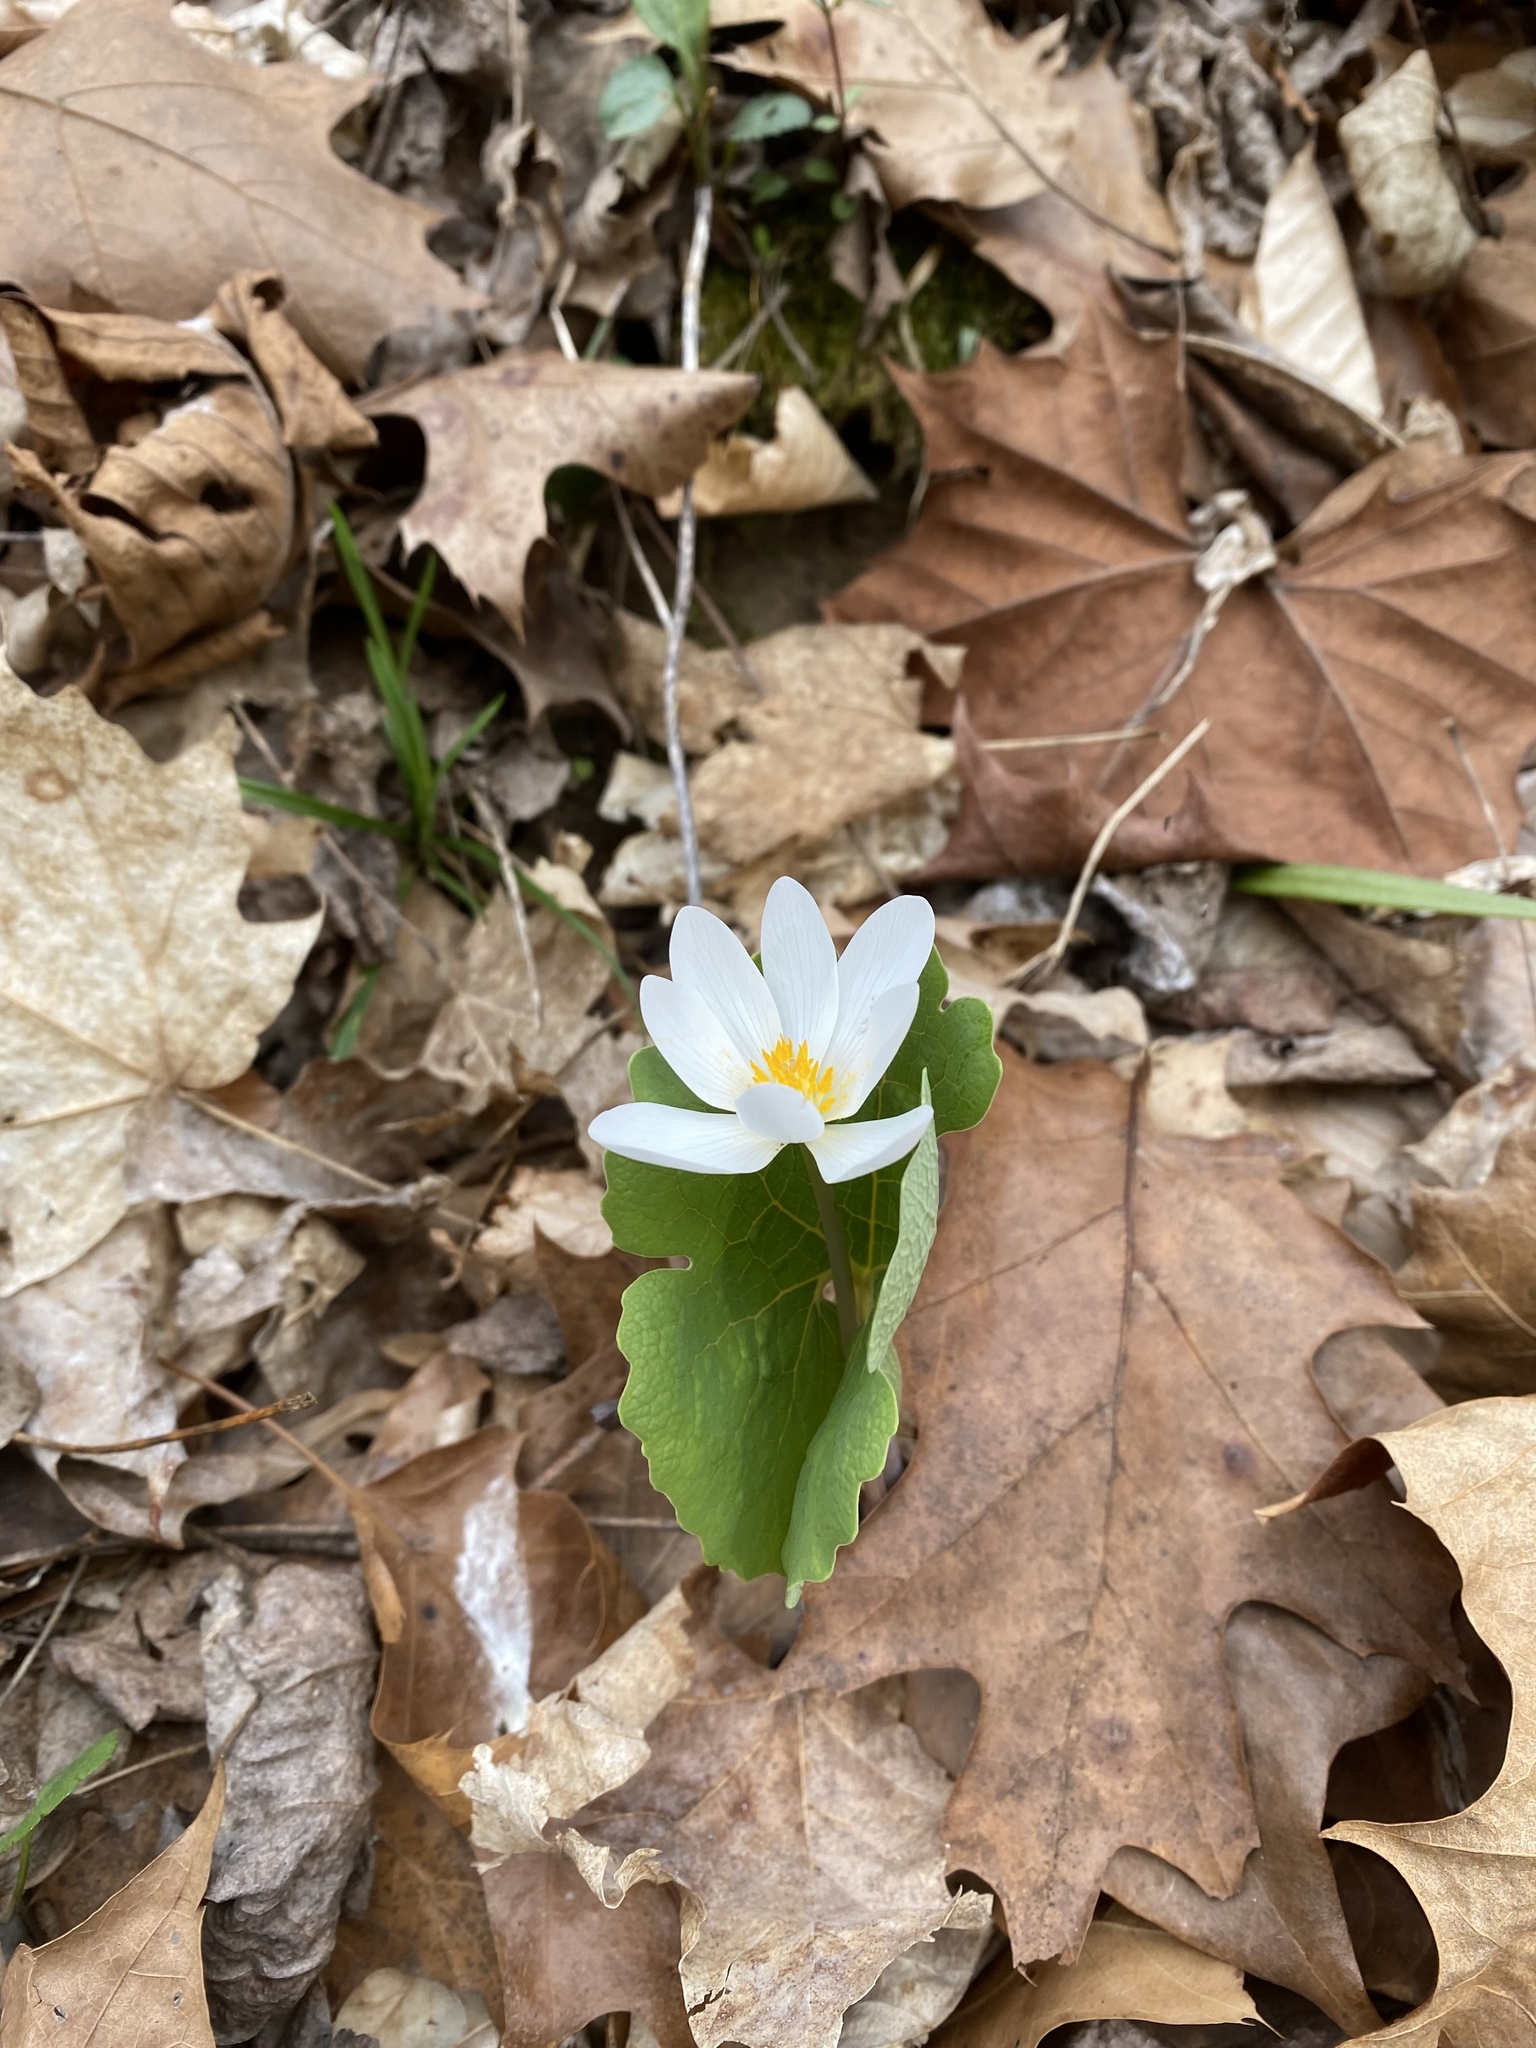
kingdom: Plantae
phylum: Tracheophyta
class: Magnoliopsida
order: Ranunculales
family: Papaveraceae
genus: Sanguinaria
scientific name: Sanguinaria canadensis
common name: Bloodroot
